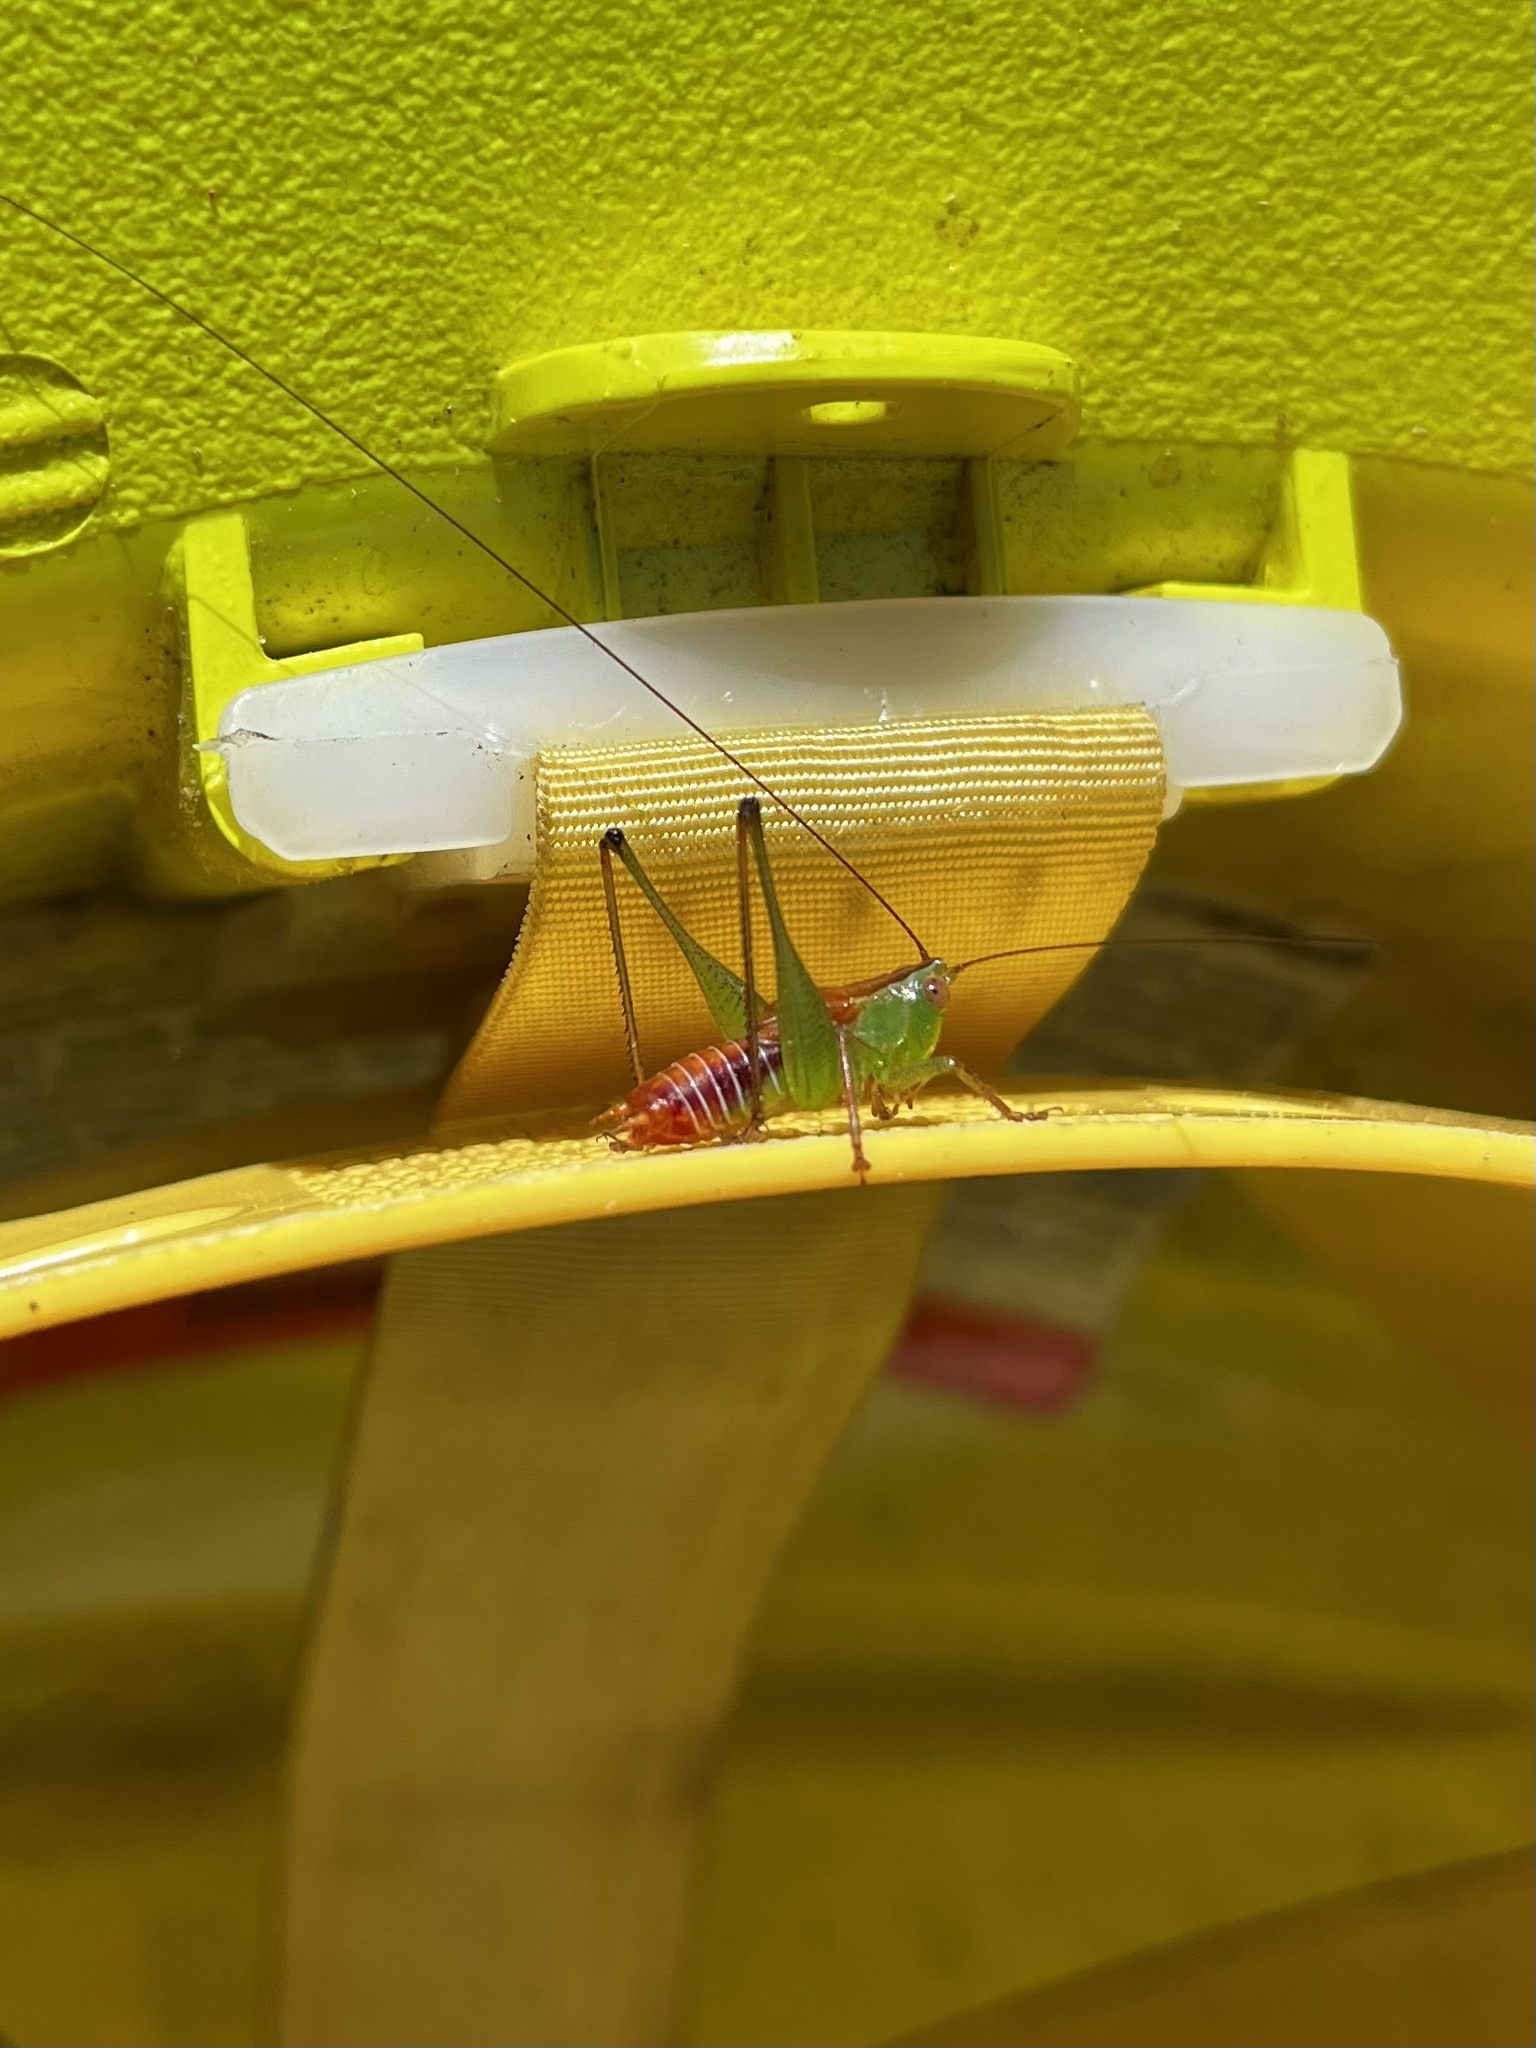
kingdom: Animalia
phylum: Arthropoda
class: Insecta
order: Orthoptera
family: Tettigoniidae
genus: Odontoxiphidium
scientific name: Odontoxiphidium apterum
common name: Wingless meadow katydid
